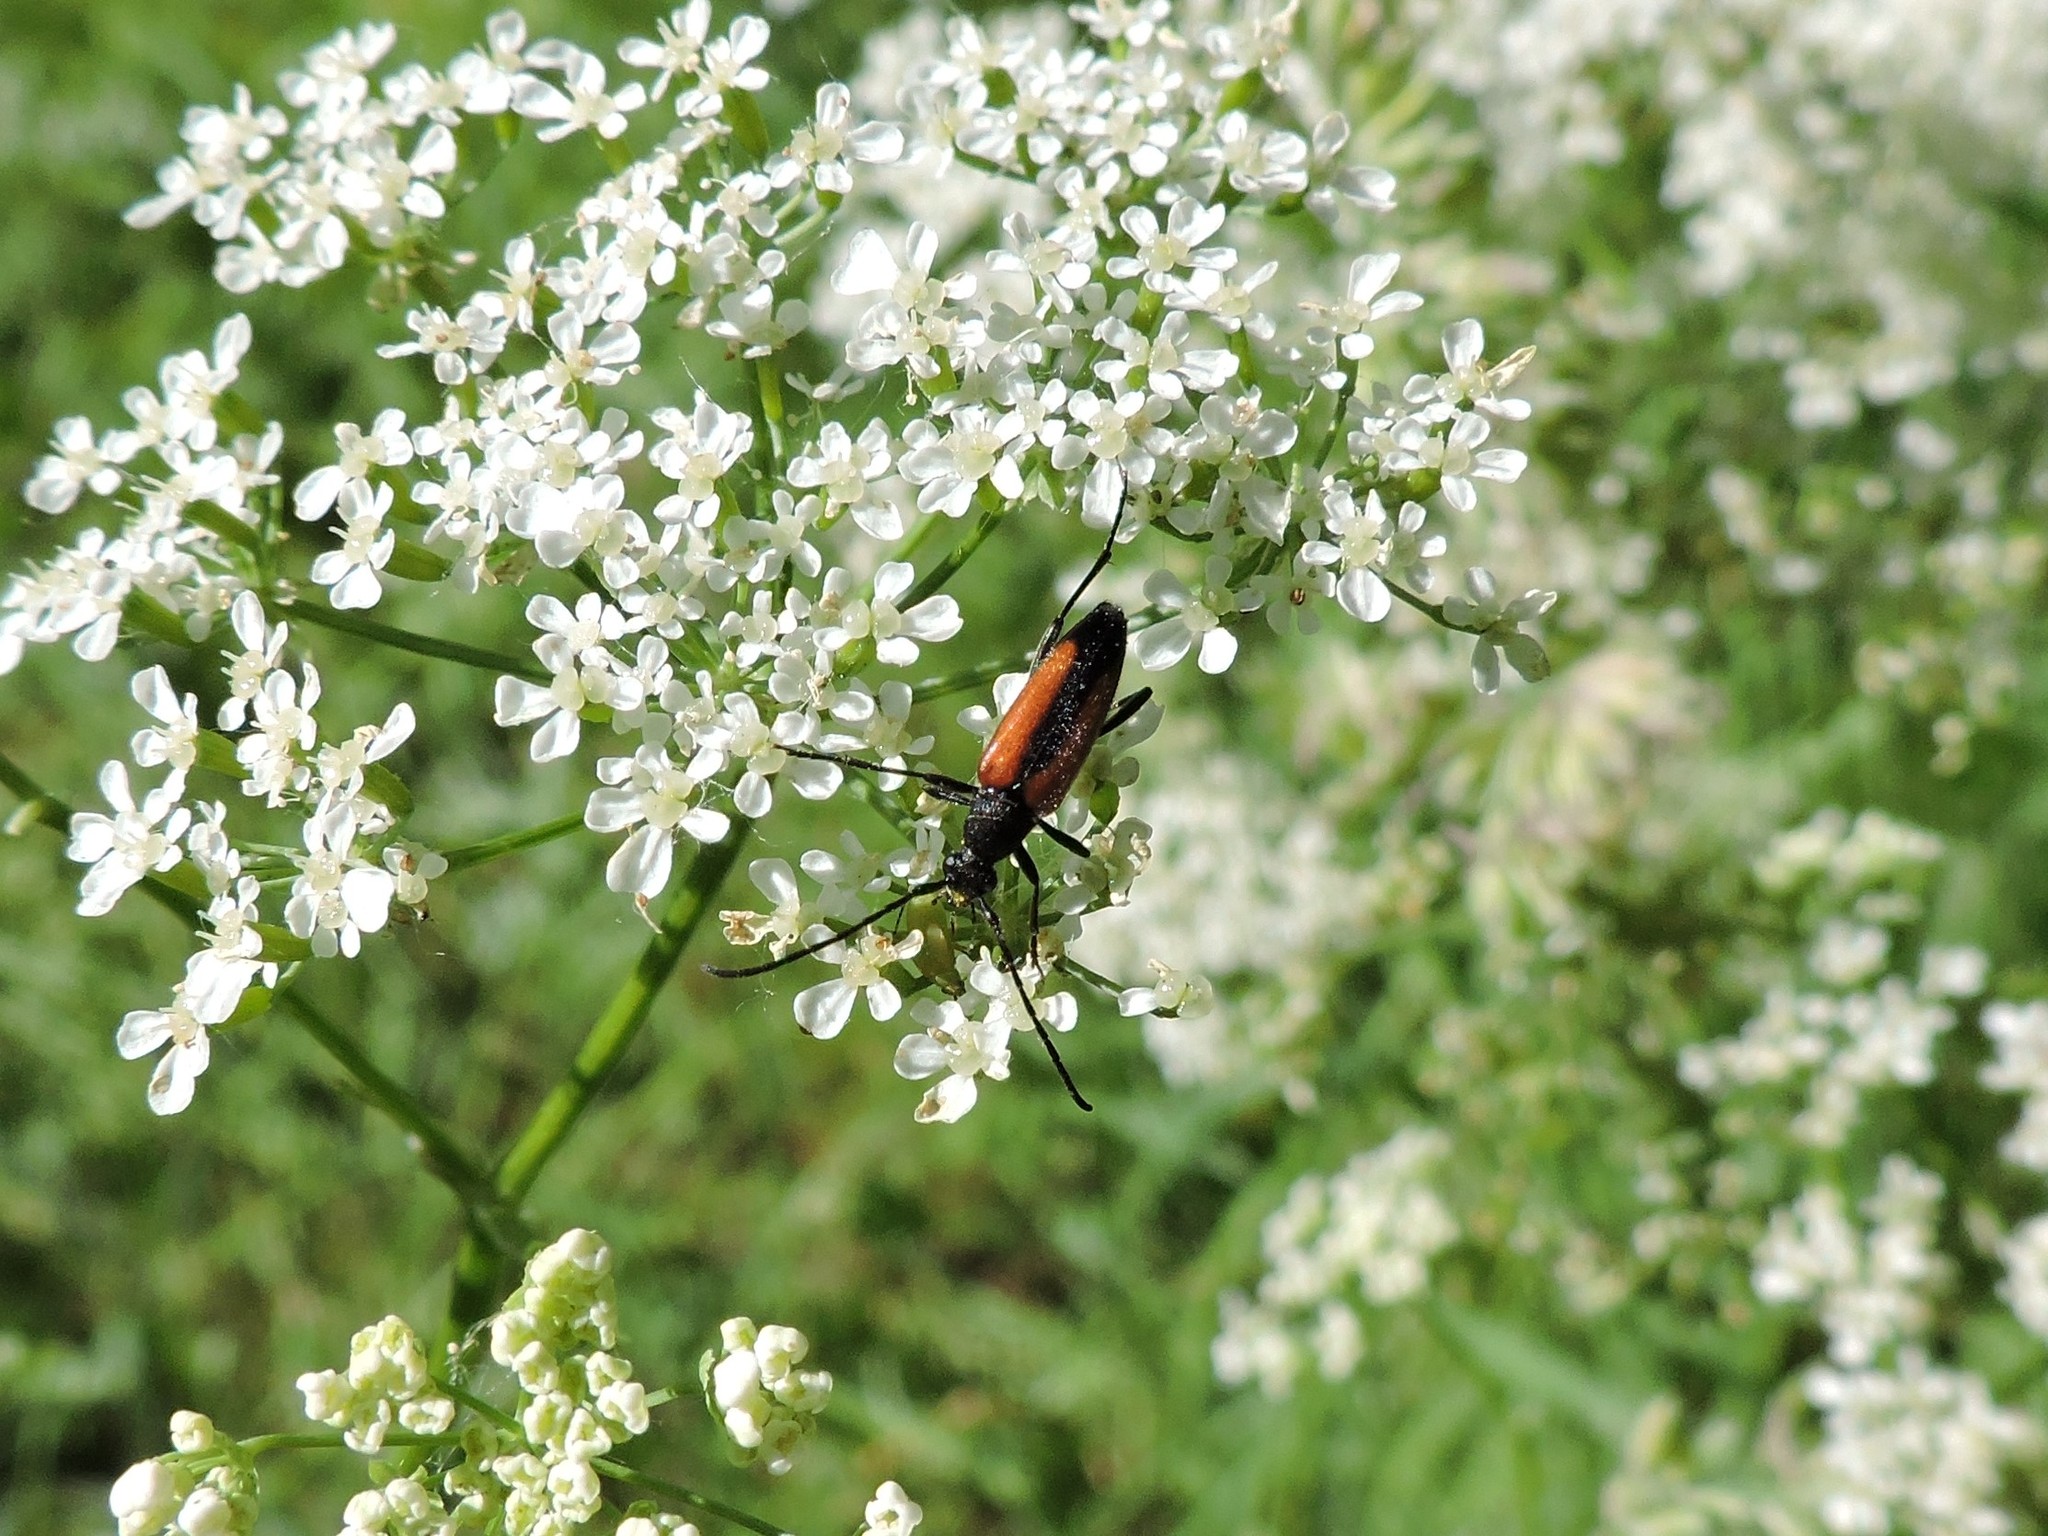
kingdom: Animalia
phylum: Arthropoda
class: Insecta
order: Coleoptera
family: Cerambycidae
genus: Stenurella
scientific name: Stenurella melanura
